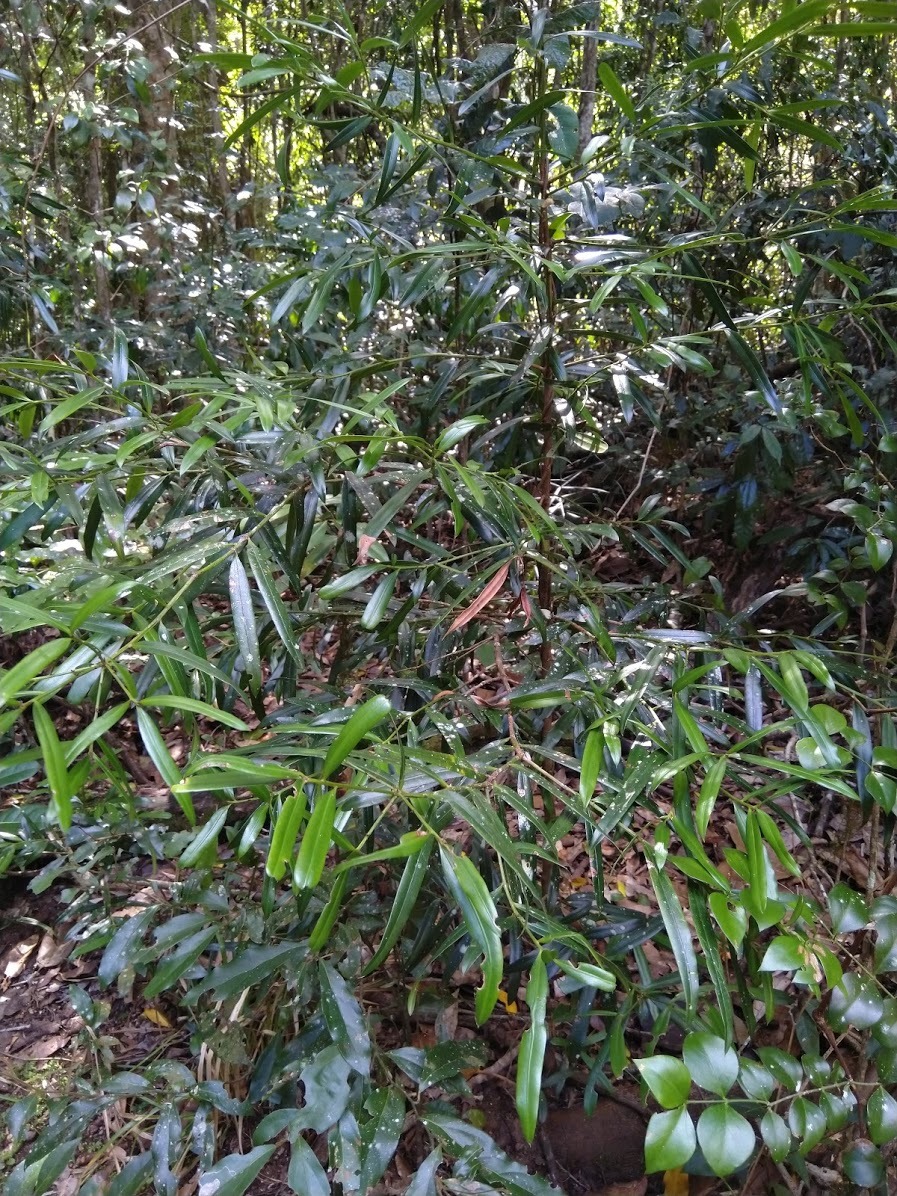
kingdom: Plantae
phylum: Tracheophyta
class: Pinopsida
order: Pinales
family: Podocarpaceae
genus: Podocarpus
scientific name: Podocarpus elatus
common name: Plum pine
